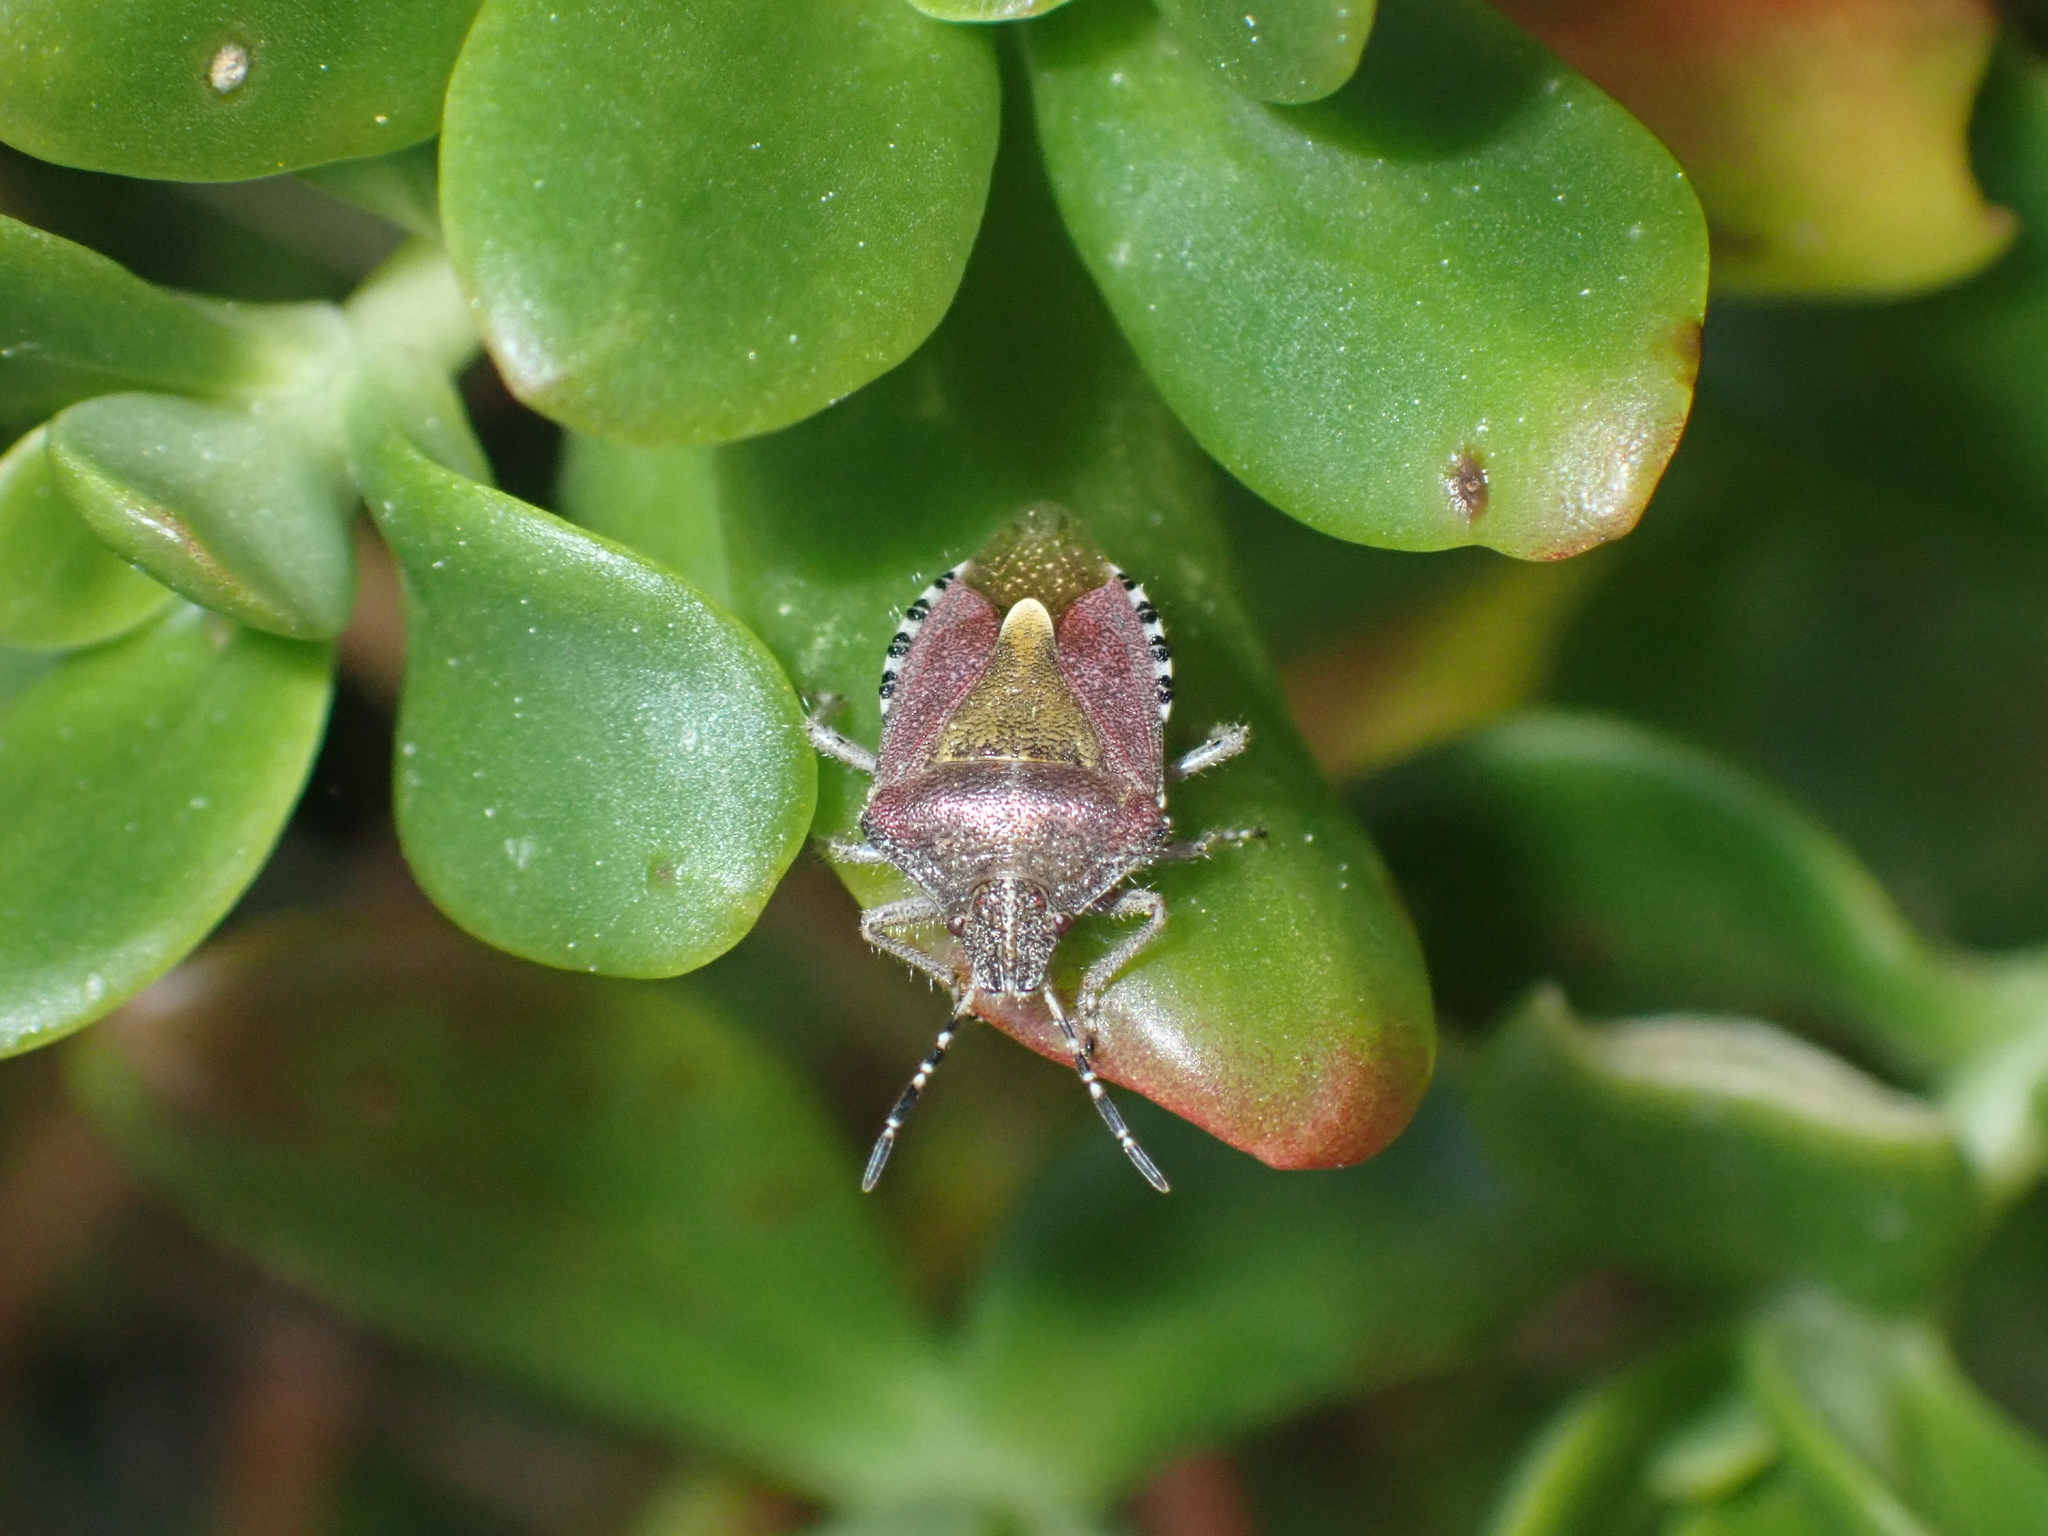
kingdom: Animalia
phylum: Arthropoda
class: Insecta
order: Hemiptera
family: Pentatomidae
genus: Dolycoris
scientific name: Dolycoris baccarum
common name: Sloe bug
